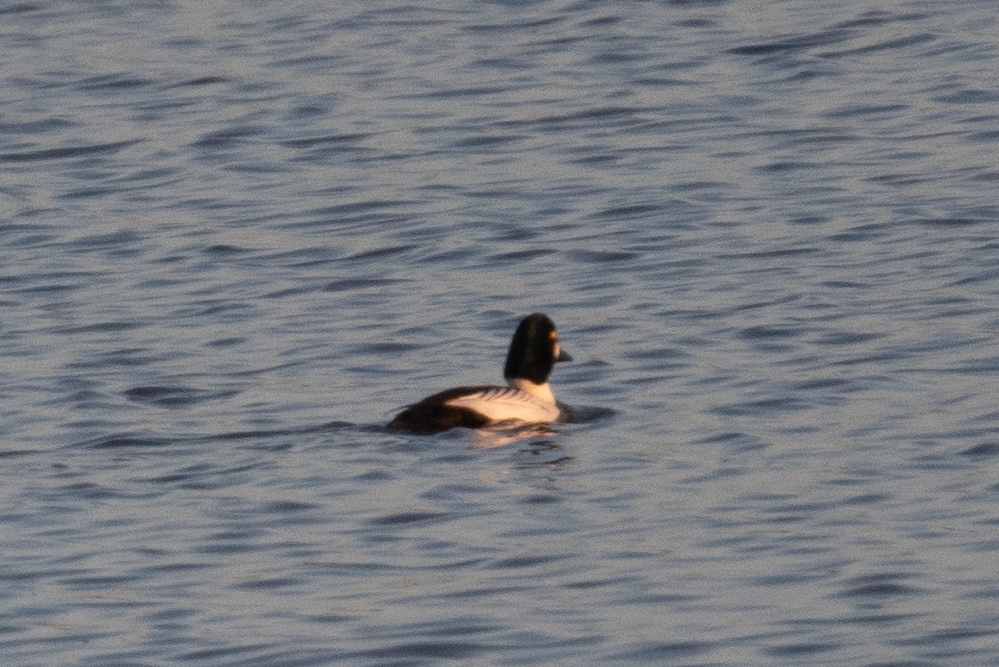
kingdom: Animalia
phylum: Chordata
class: Aves
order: Anseriformes
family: Anatidae
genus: Bucephala
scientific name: Bucephala clangula
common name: Common goldeneye
